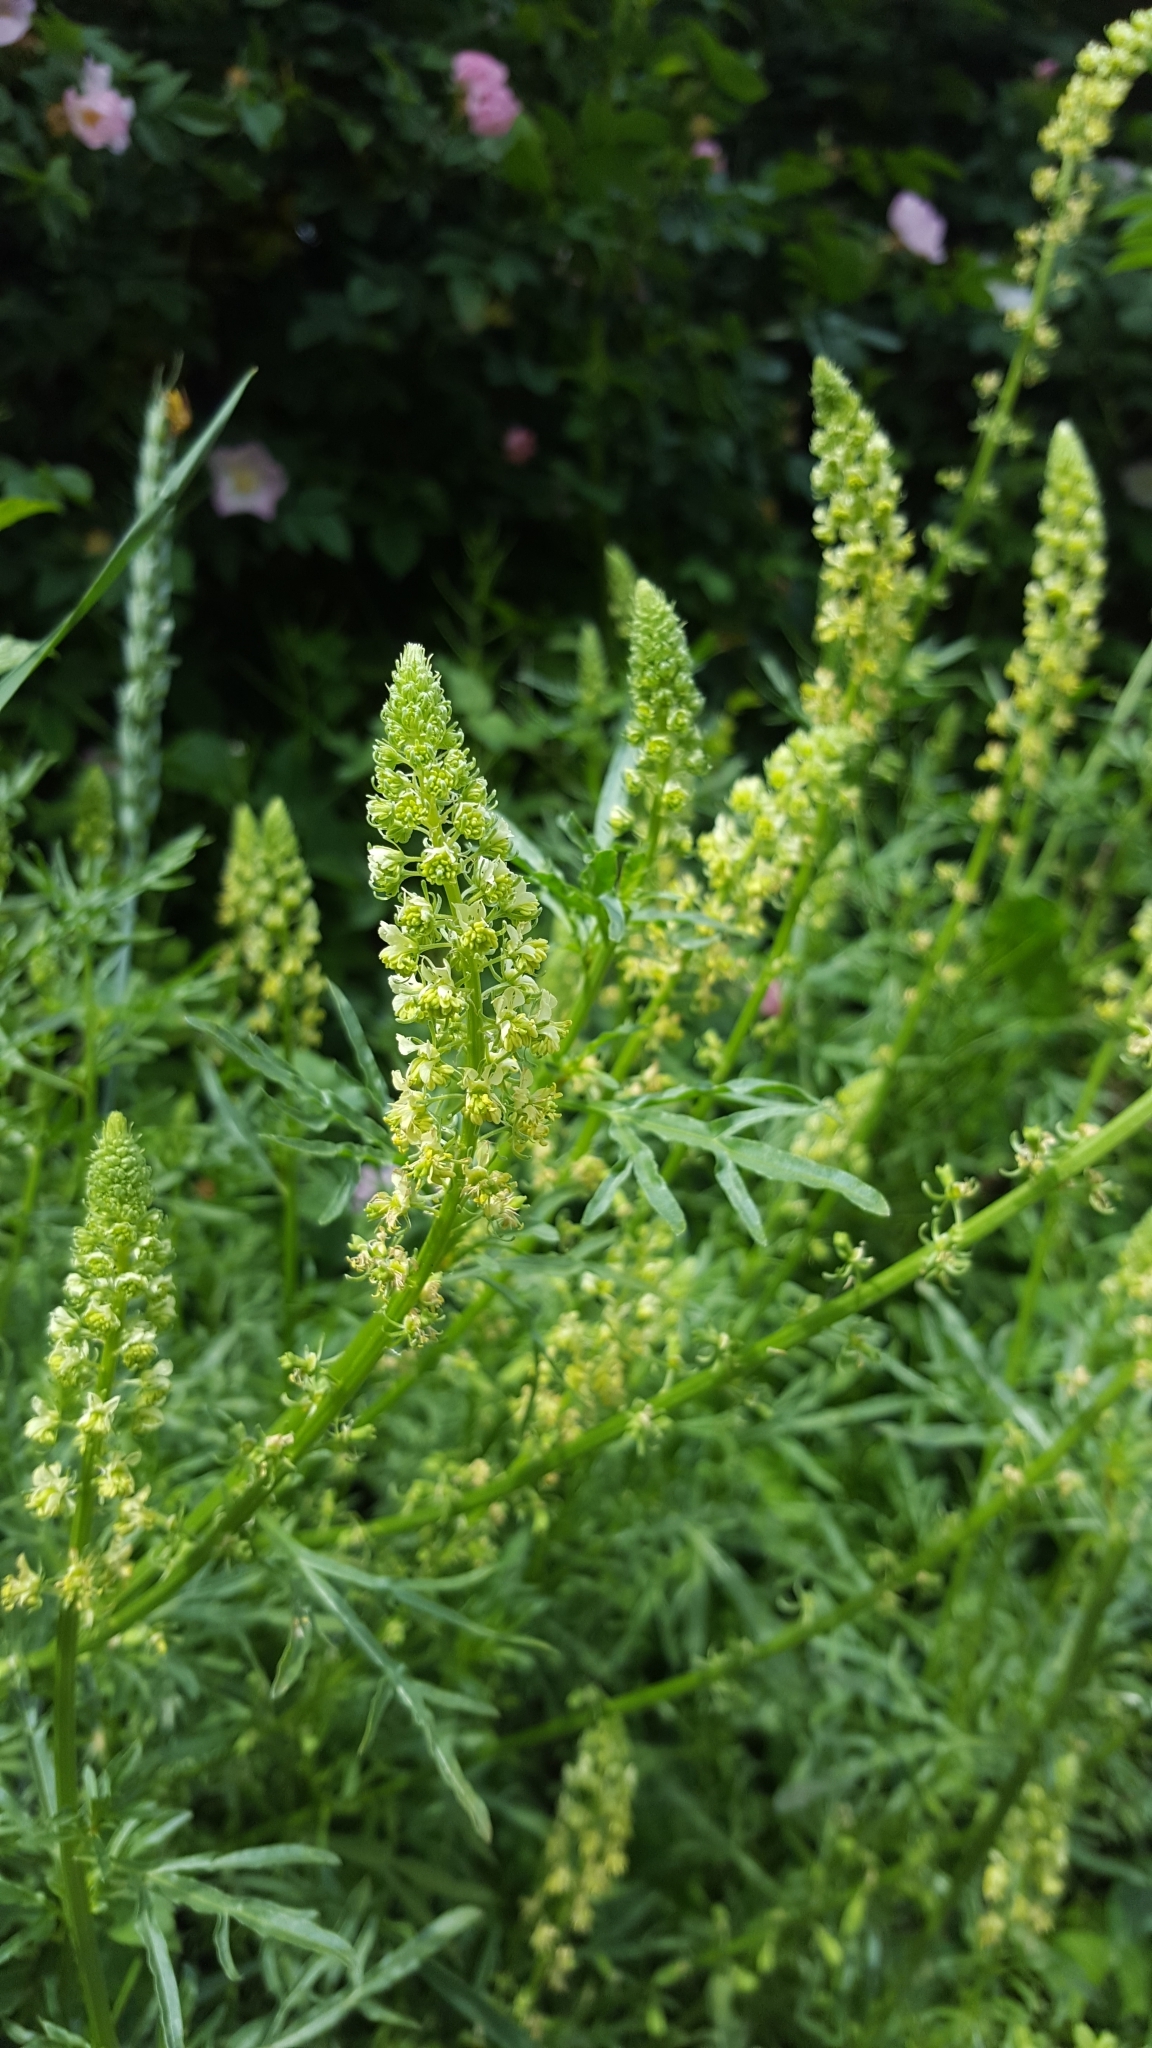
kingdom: Plantae
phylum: Tracheophyta
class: Magnoliopsida
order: Brassicales
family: Resedaceae
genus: Reseda
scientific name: Reseda lutea
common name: Wild mignonette
